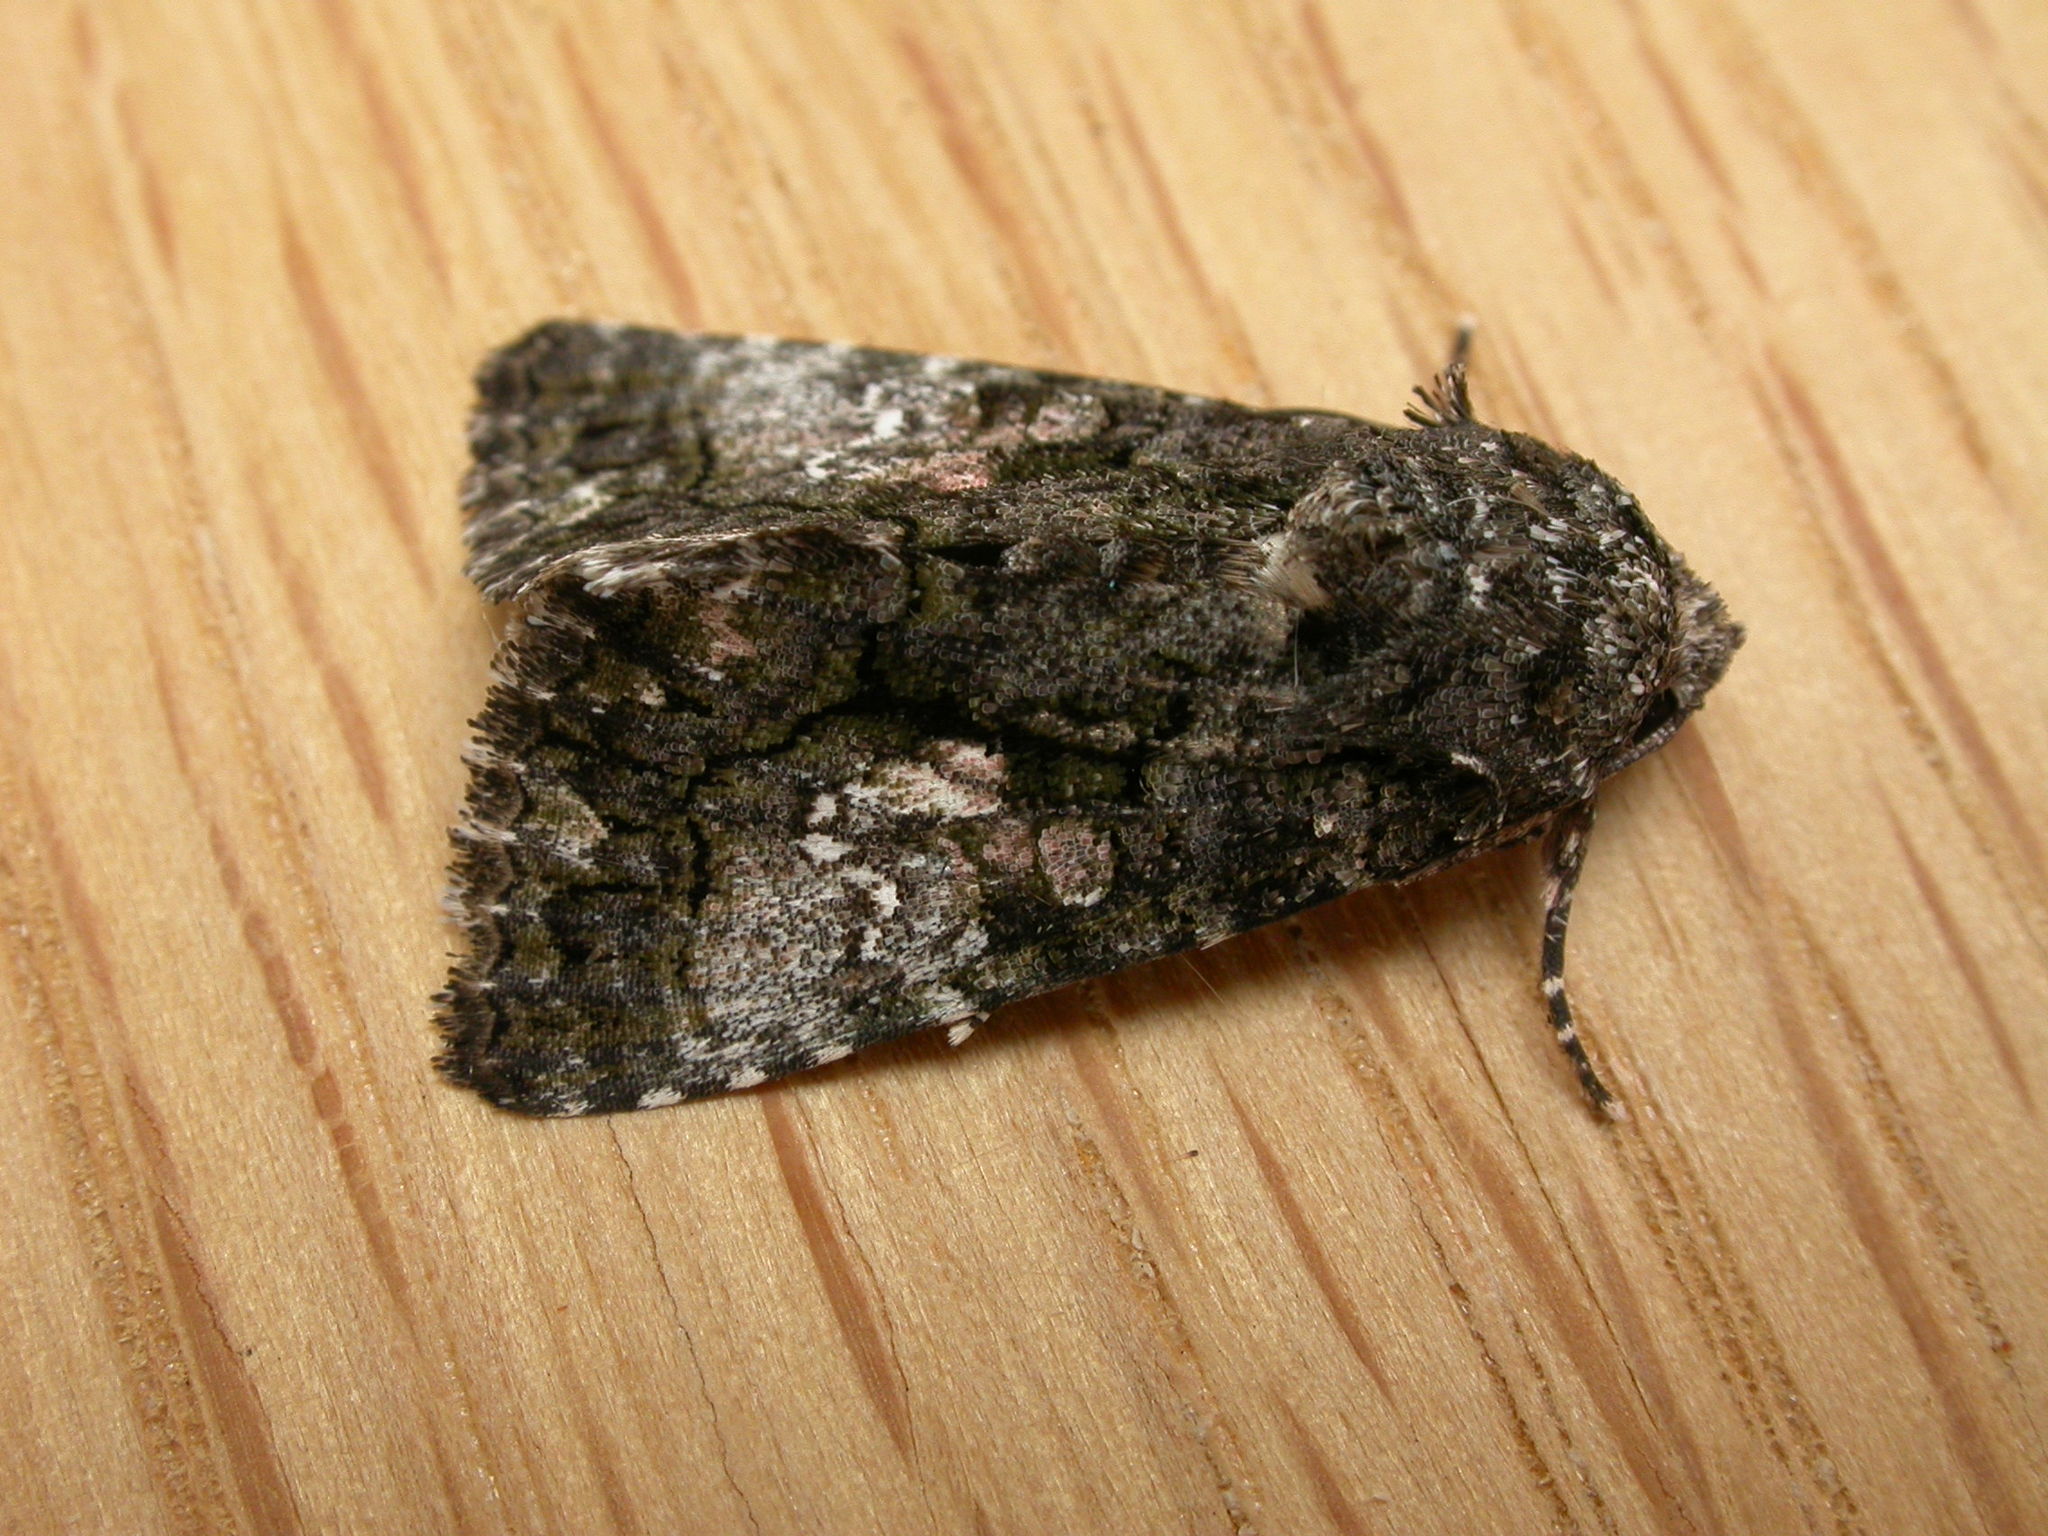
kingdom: Animalia
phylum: Arthropoda
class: Insecta
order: Lepidoptera
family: Noctuidae
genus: Aedia
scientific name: Aedia leucomelas
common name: Sorcerer
